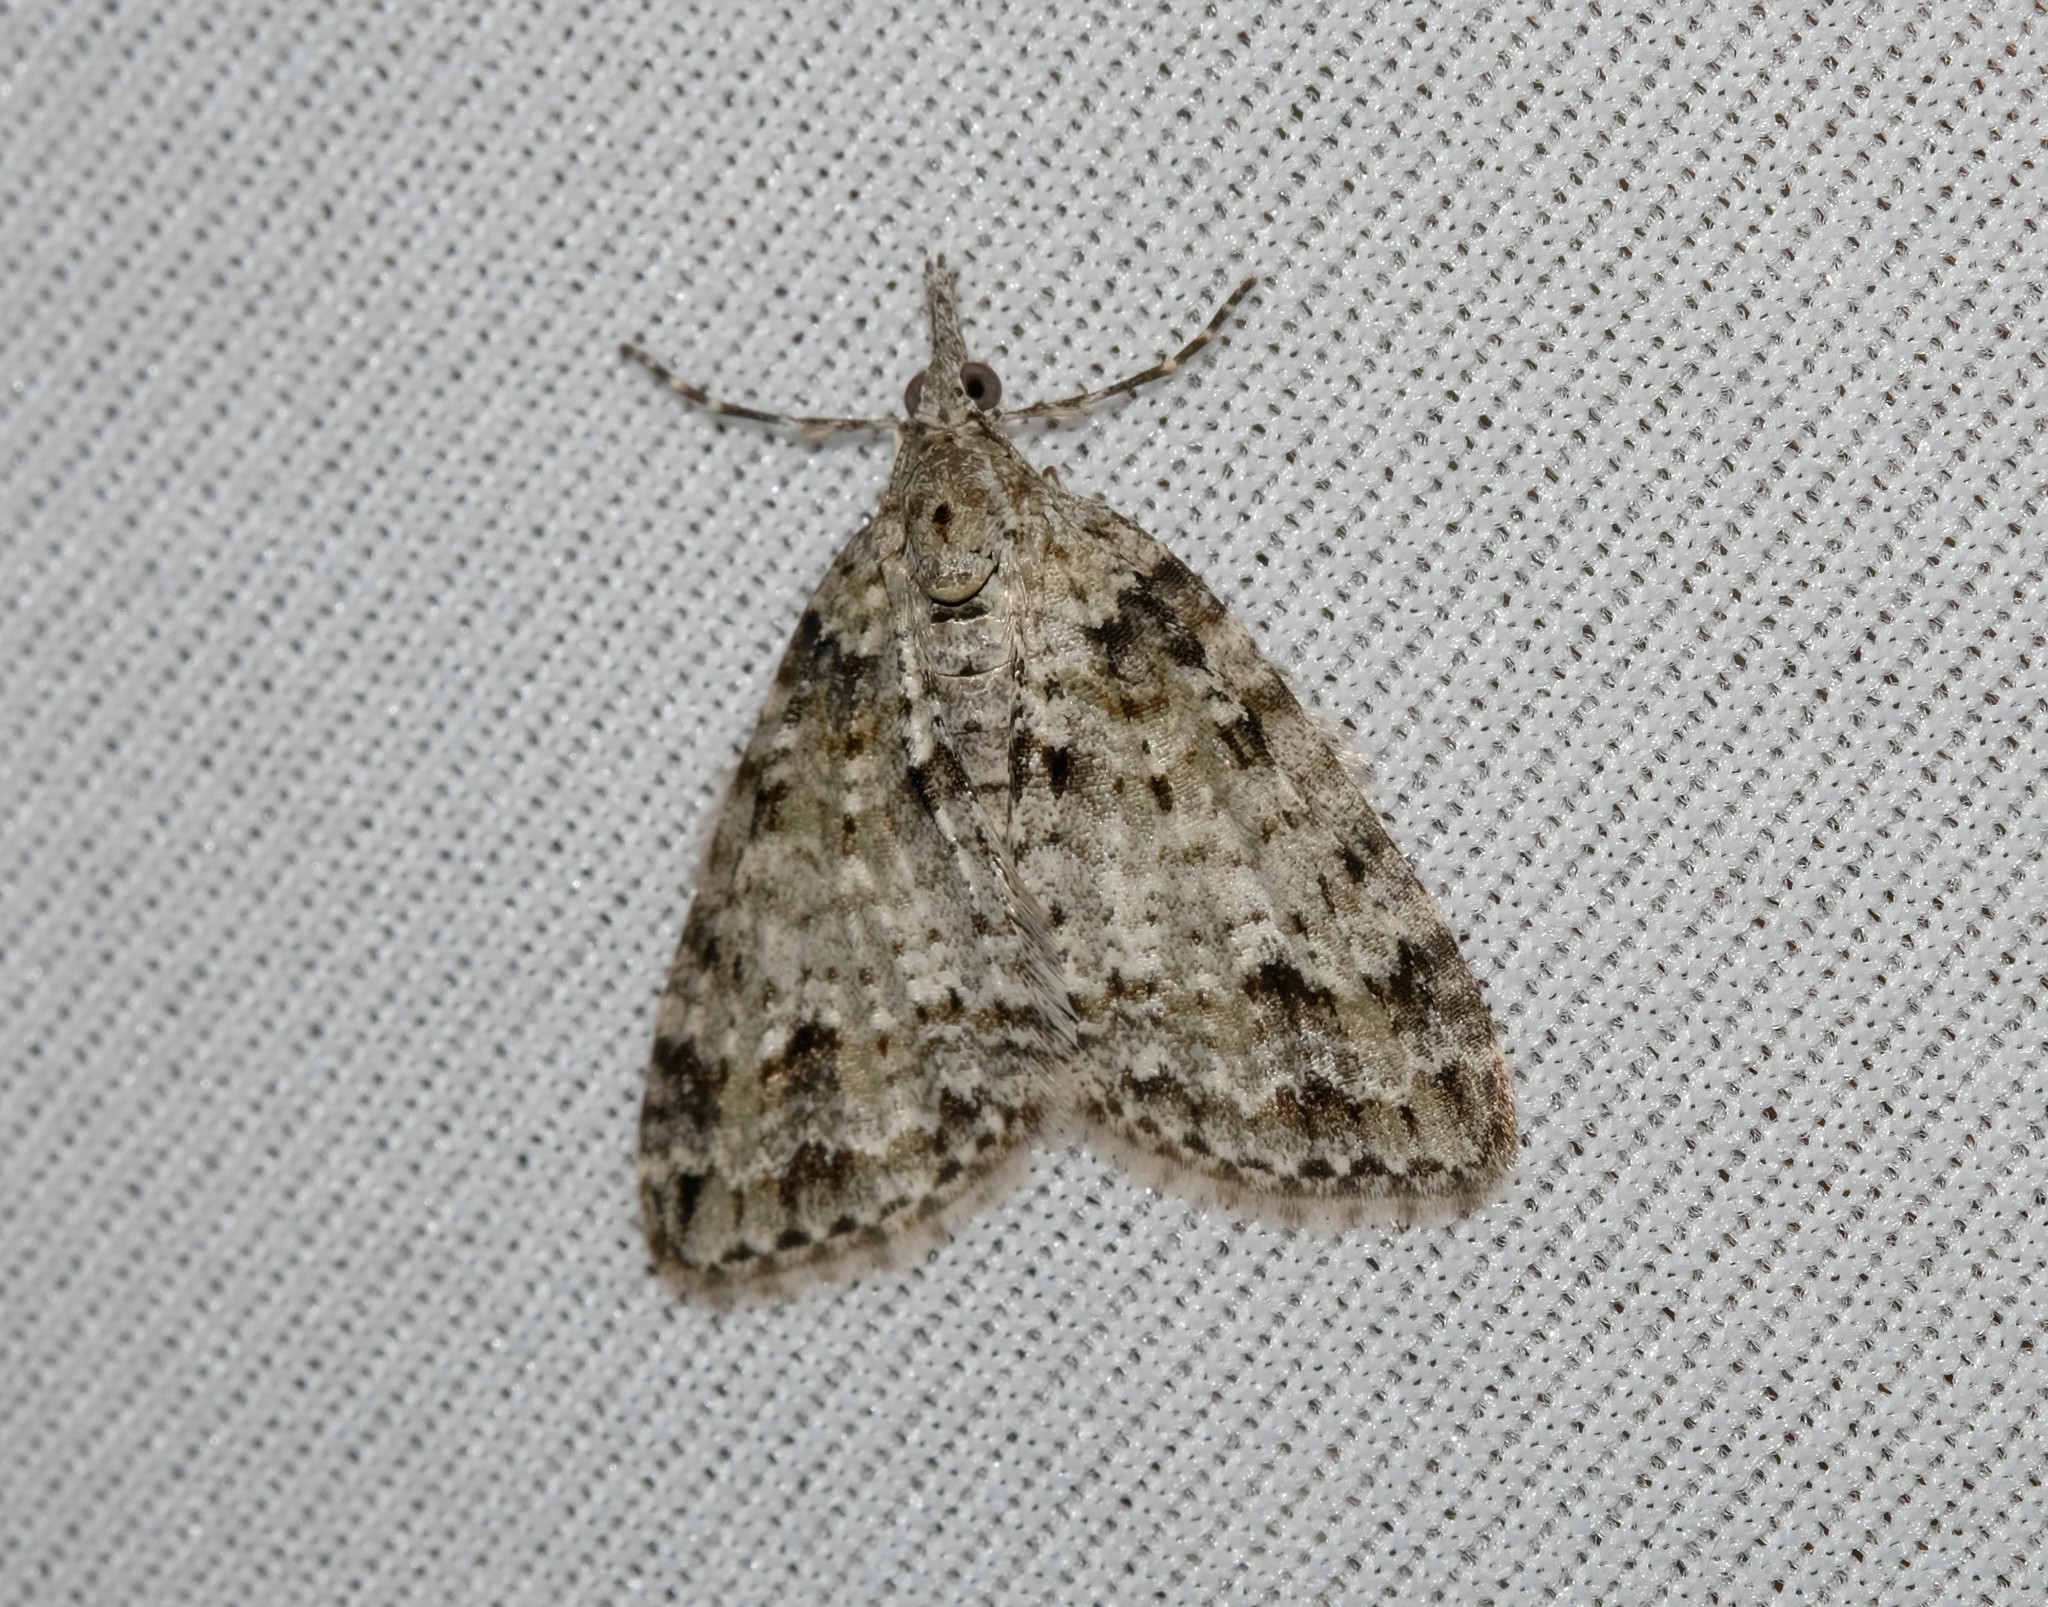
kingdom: Animalia
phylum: Arthropoda
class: Insecta
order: Lepidoptera
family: Geometridae
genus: Microdes
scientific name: Microdes villosata
